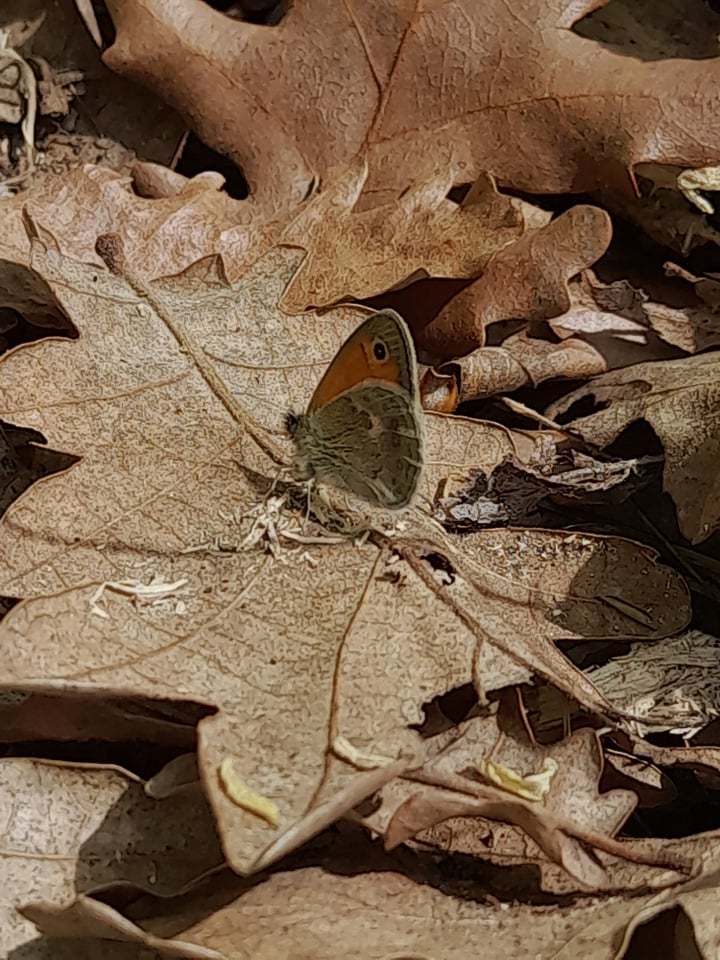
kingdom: Animalia
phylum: Arthropoda
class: Insecta
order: Lepidoptera
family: Nymphalidae
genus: Coenonympha
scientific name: Coenonympha pamphilus
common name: Small heath
